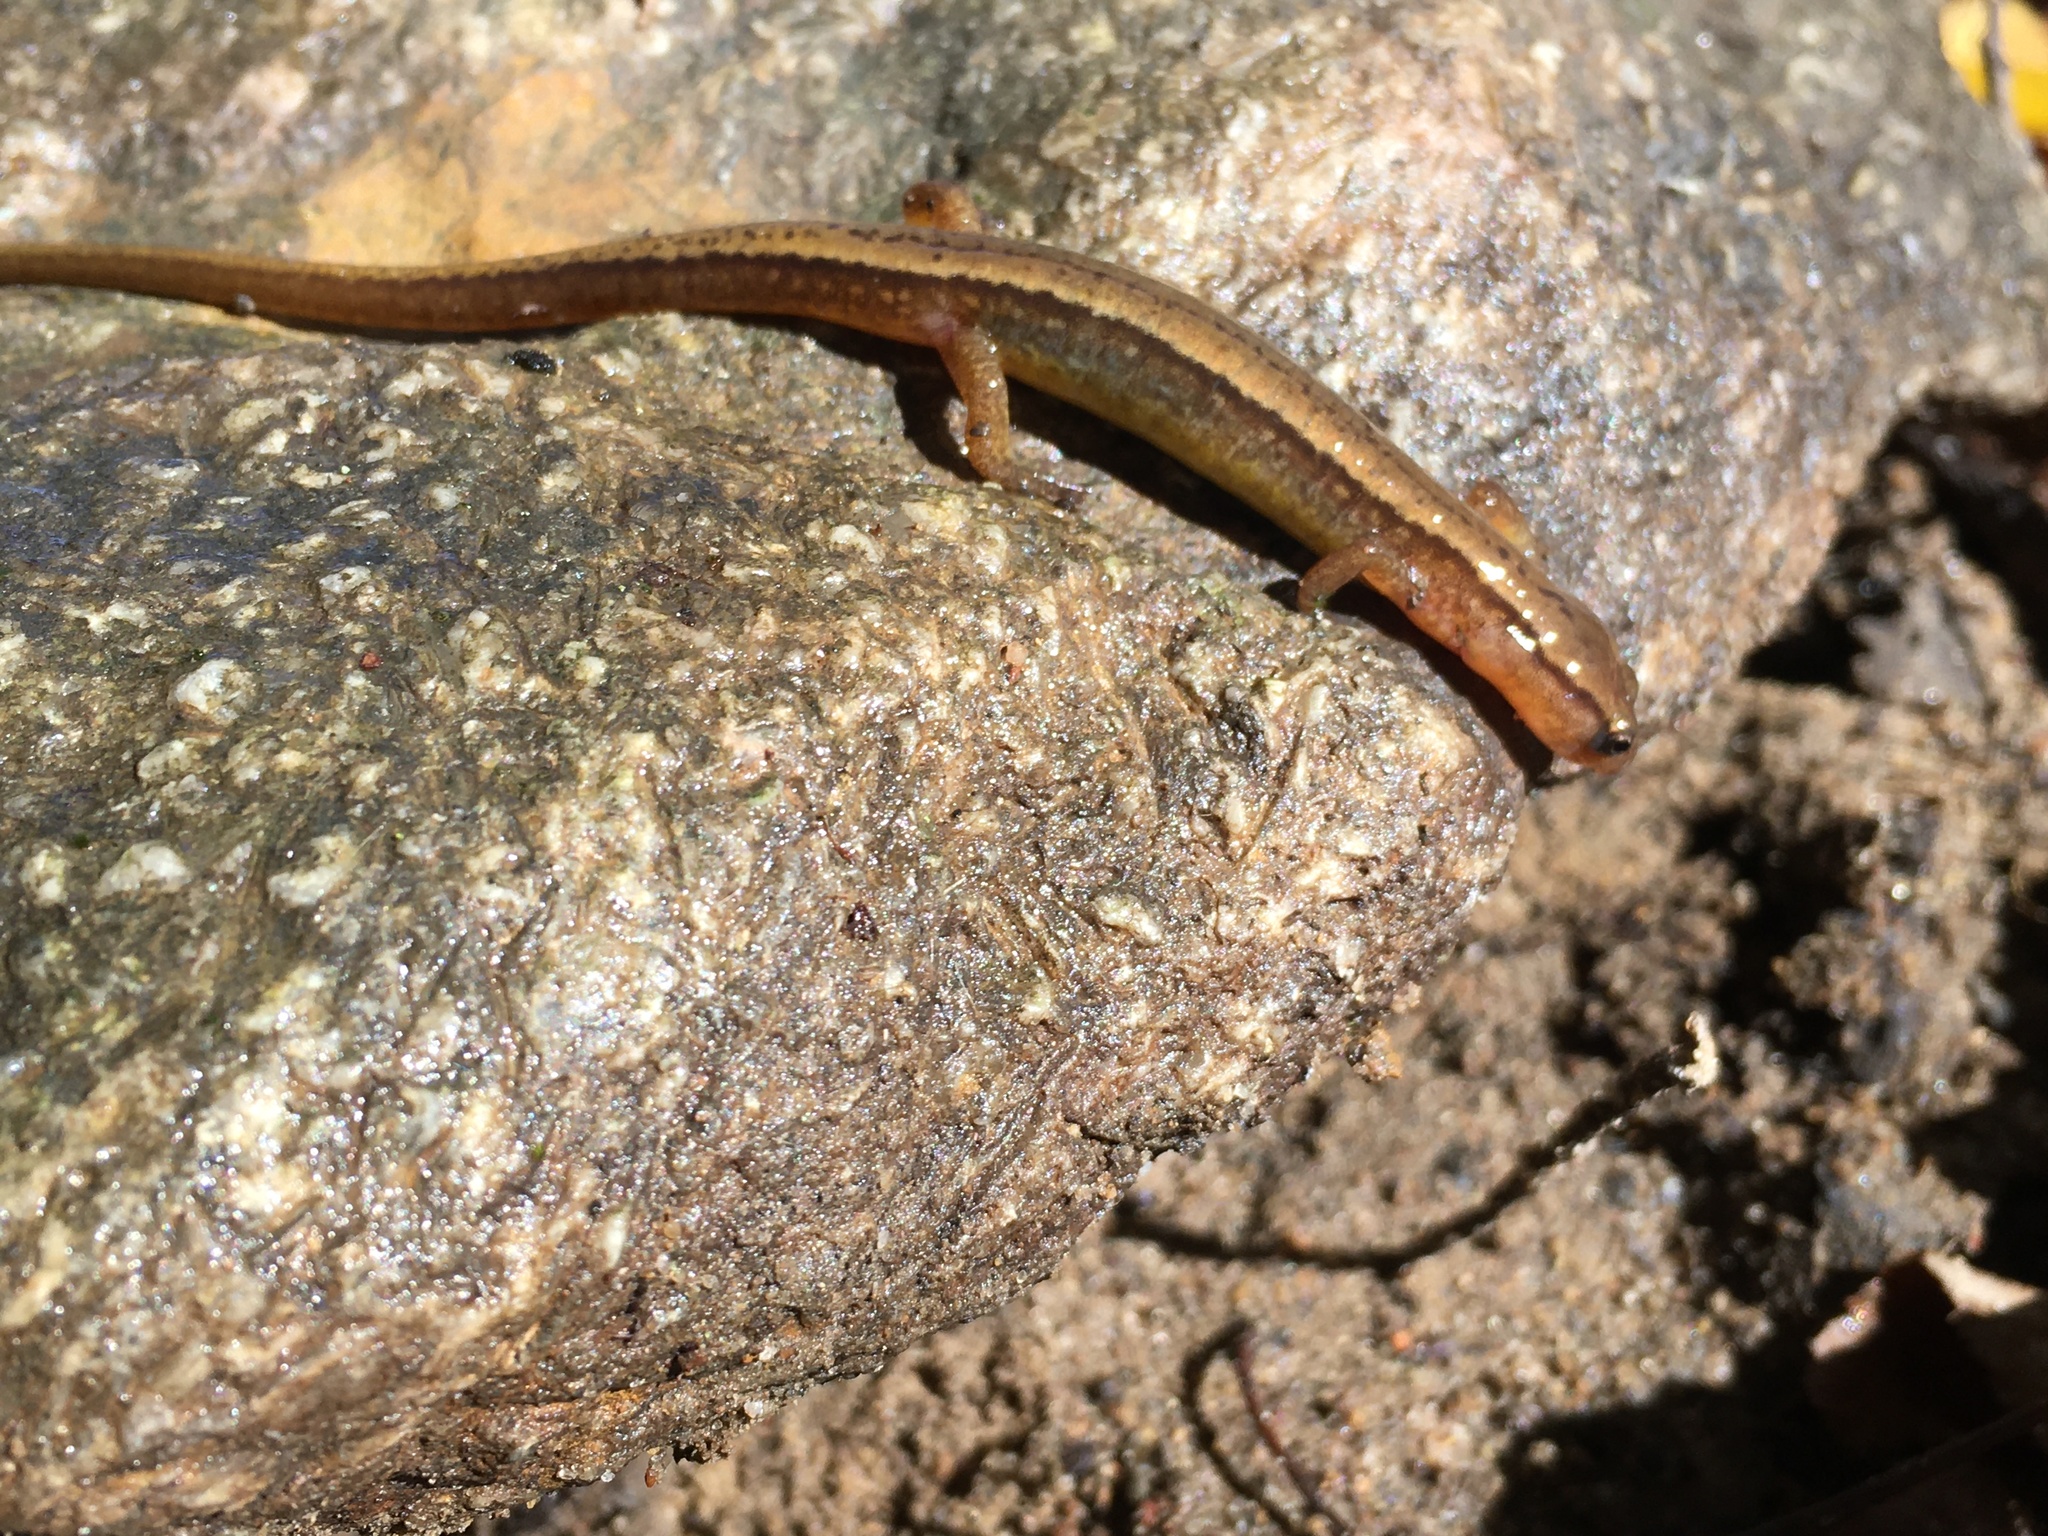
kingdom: Animalia
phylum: Chordata
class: Amphibia
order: Caudata
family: Plethodontidae
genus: Eurycea
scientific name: Eurycea cirrigera
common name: Southern two-lined salamander
